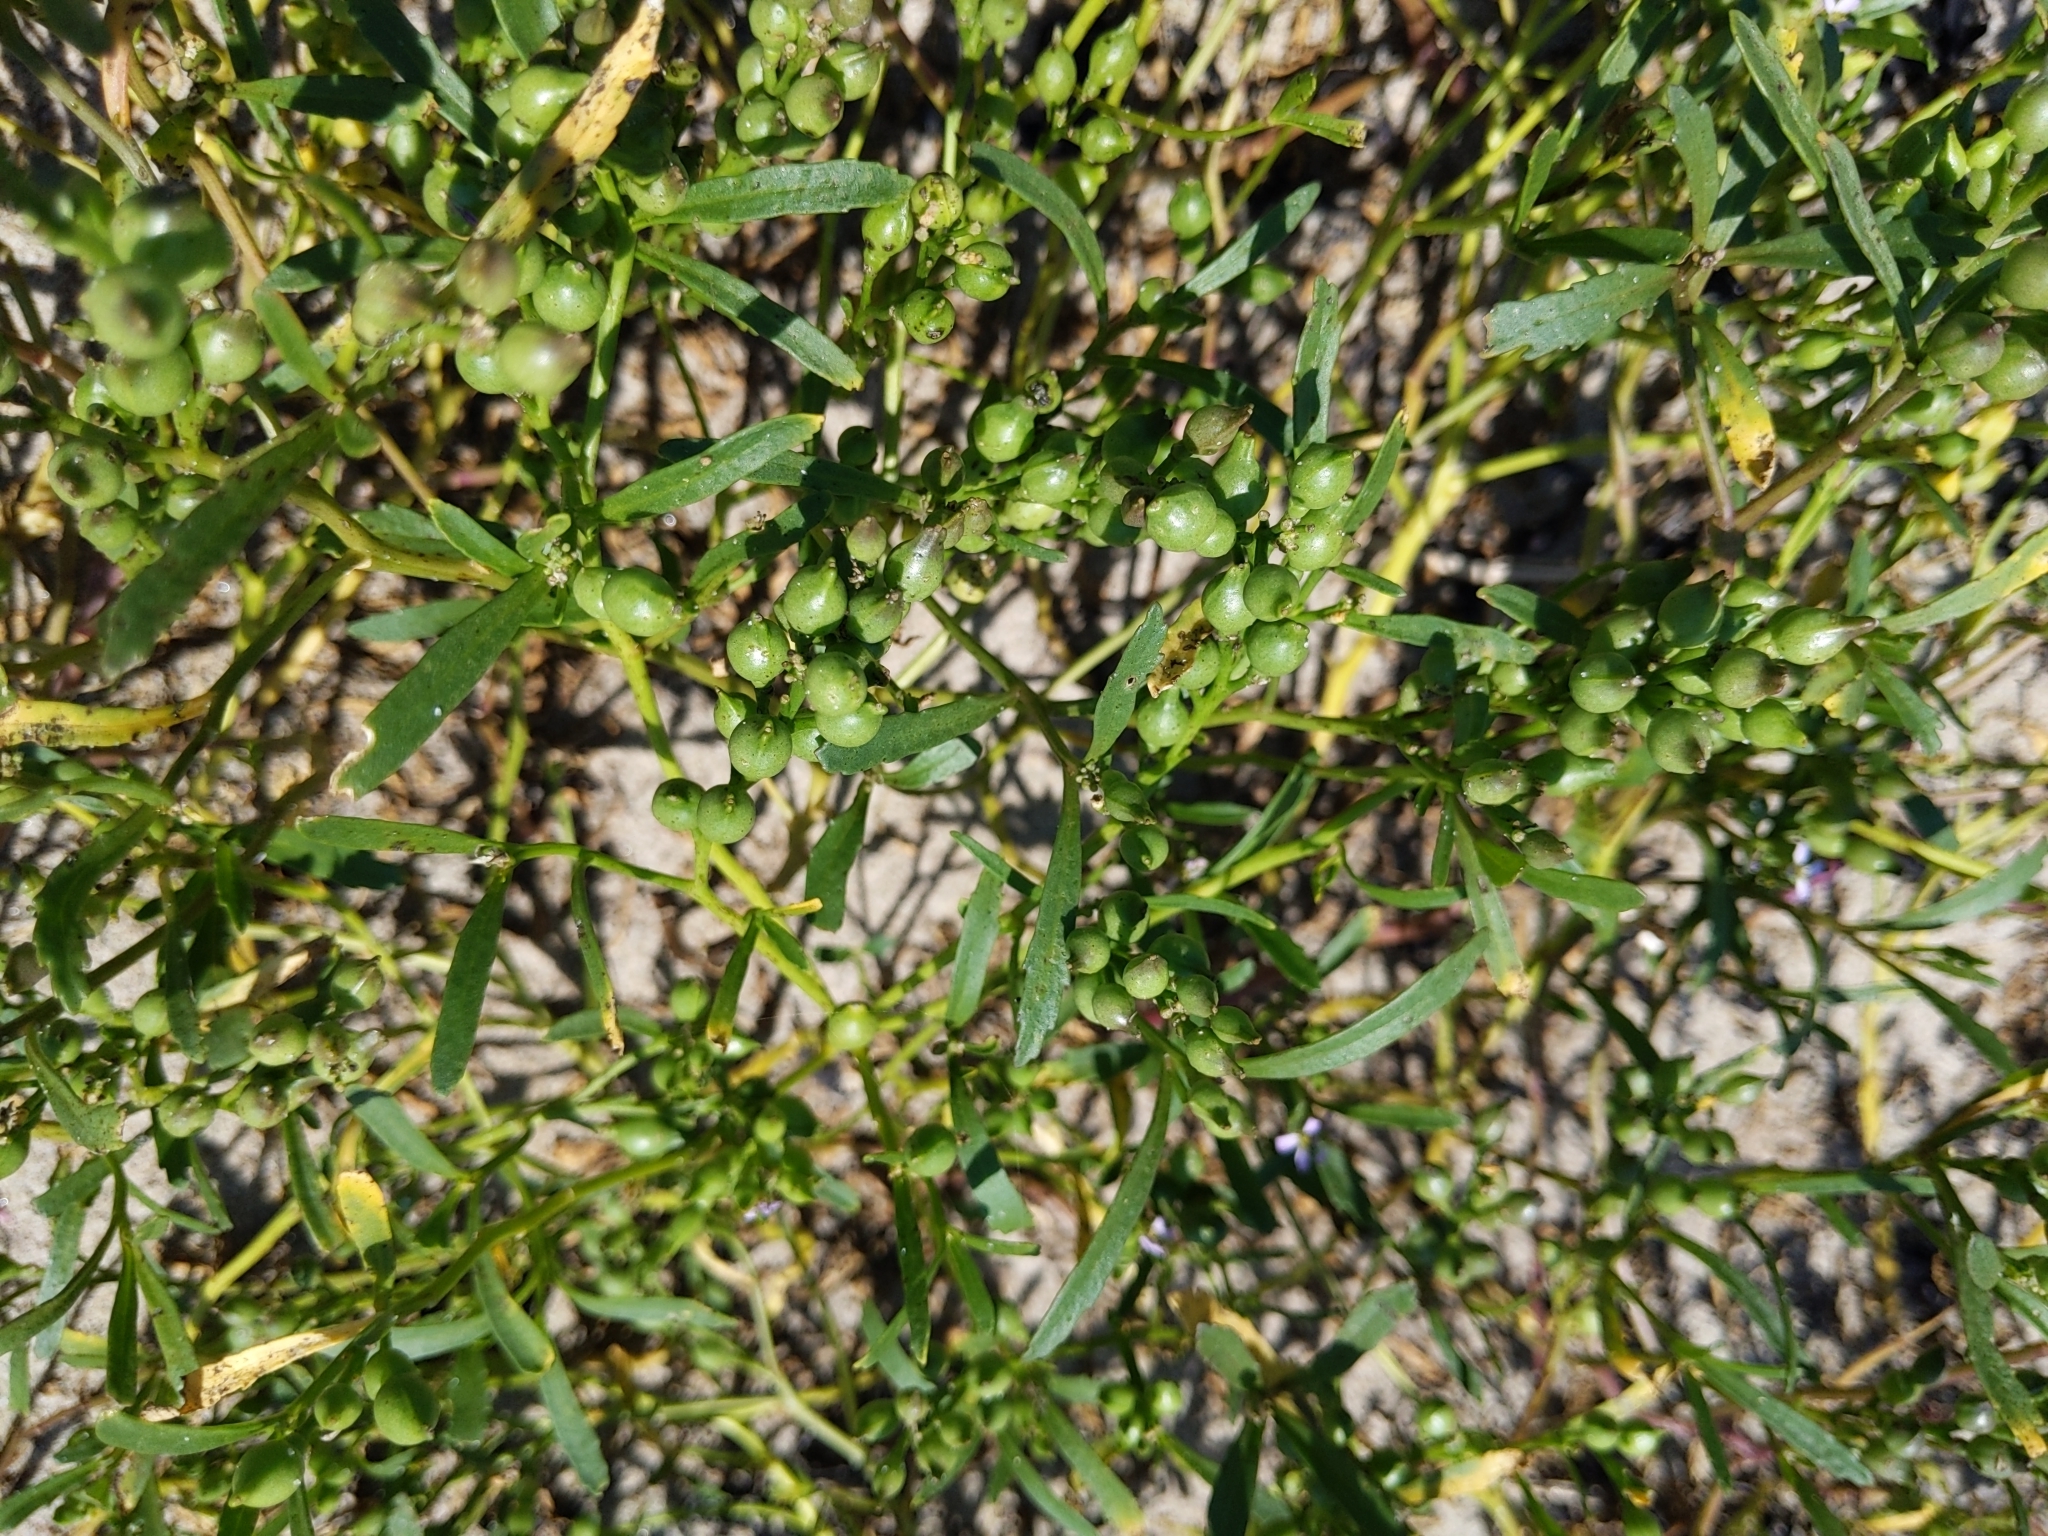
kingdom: Plantae
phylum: Tracheophyta
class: Magnoliopsida
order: Brassicales
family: Brassicaceae
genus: Cakile
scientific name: Cakile edentula
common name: American sea rocket
